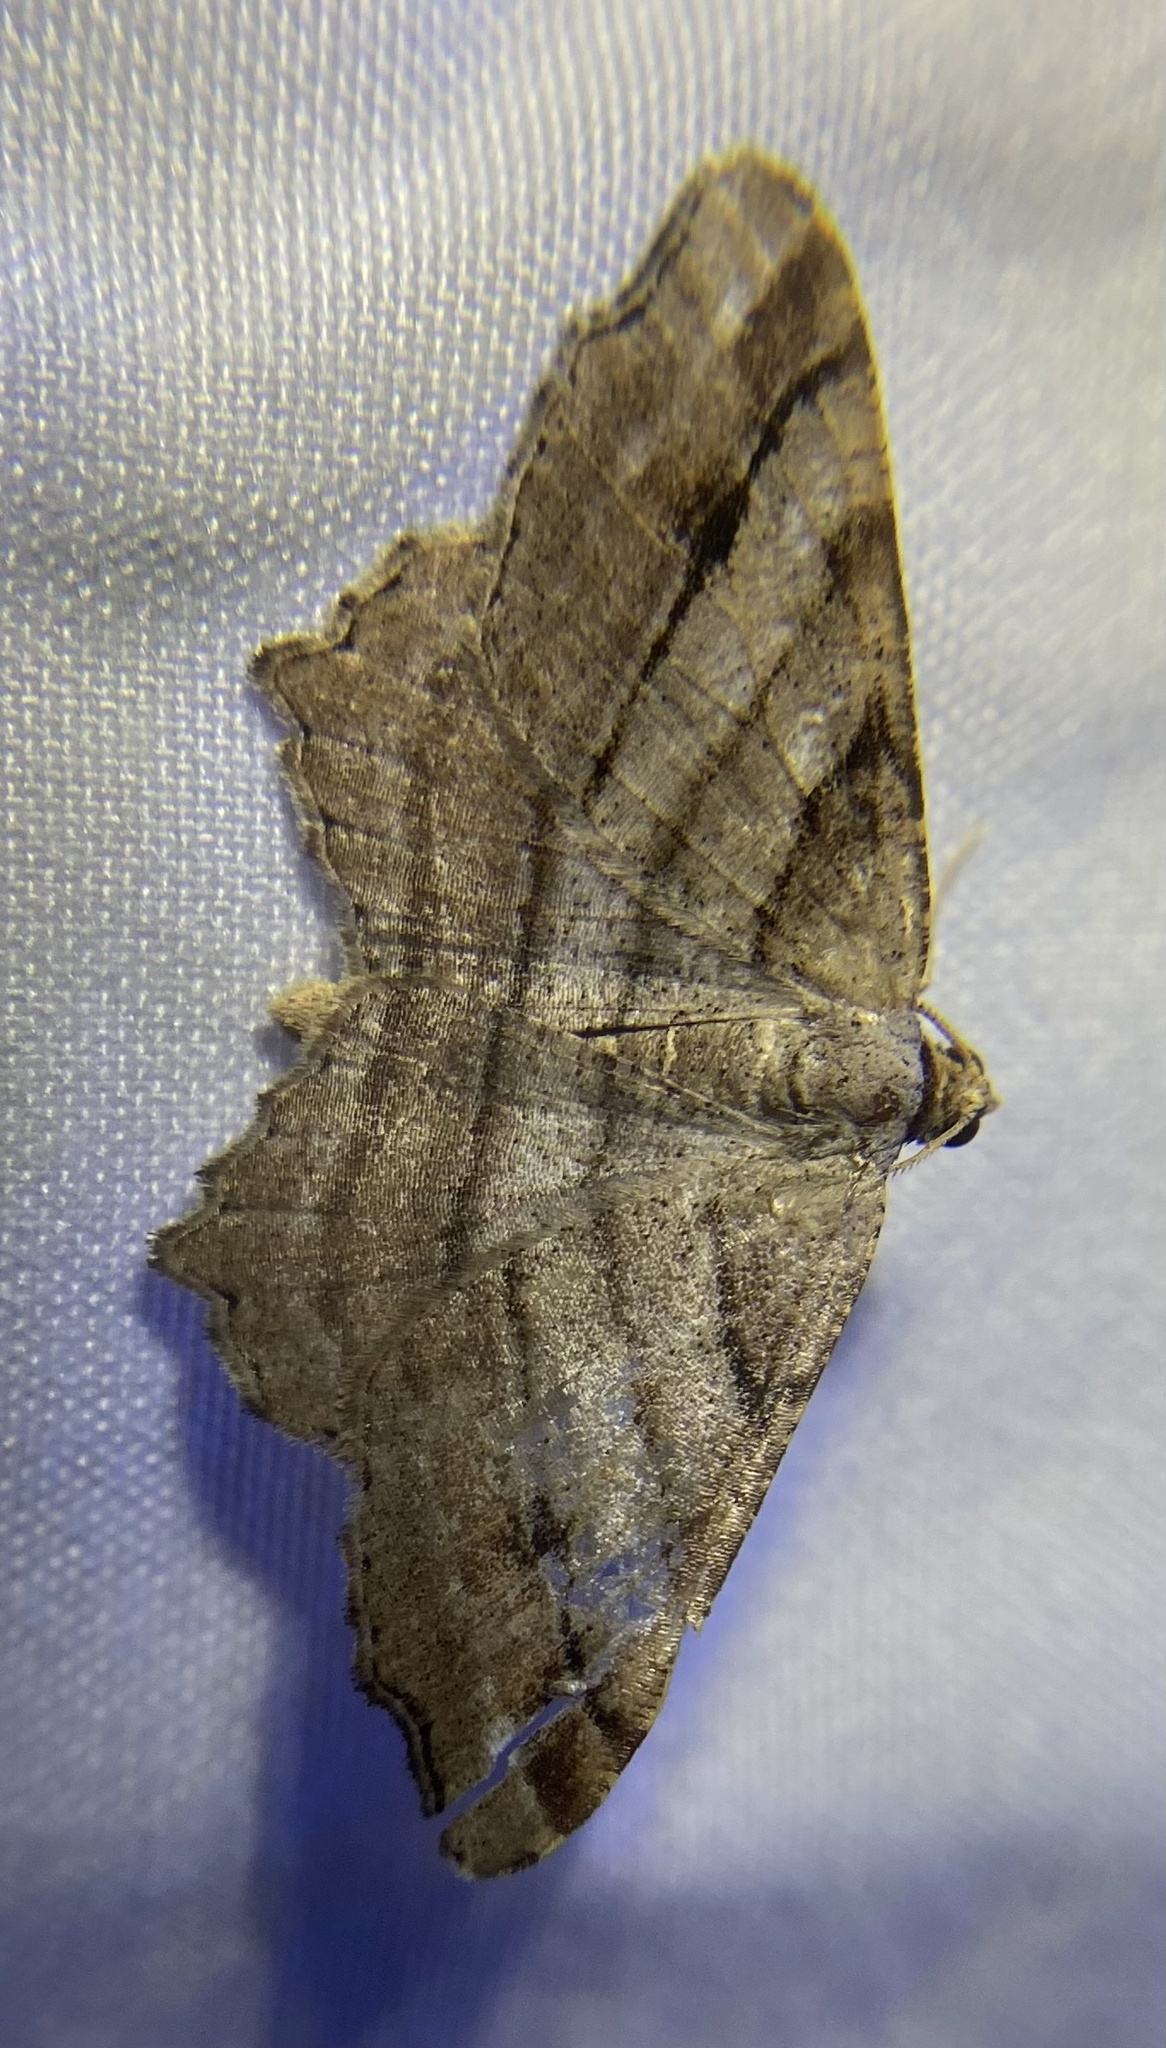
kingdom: Animalia
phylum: Arthropoda
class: Insecta
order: Lepidoptera
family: Geometridae
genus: Macaria
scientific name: Macaria multilineata
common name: Many-lined angle
